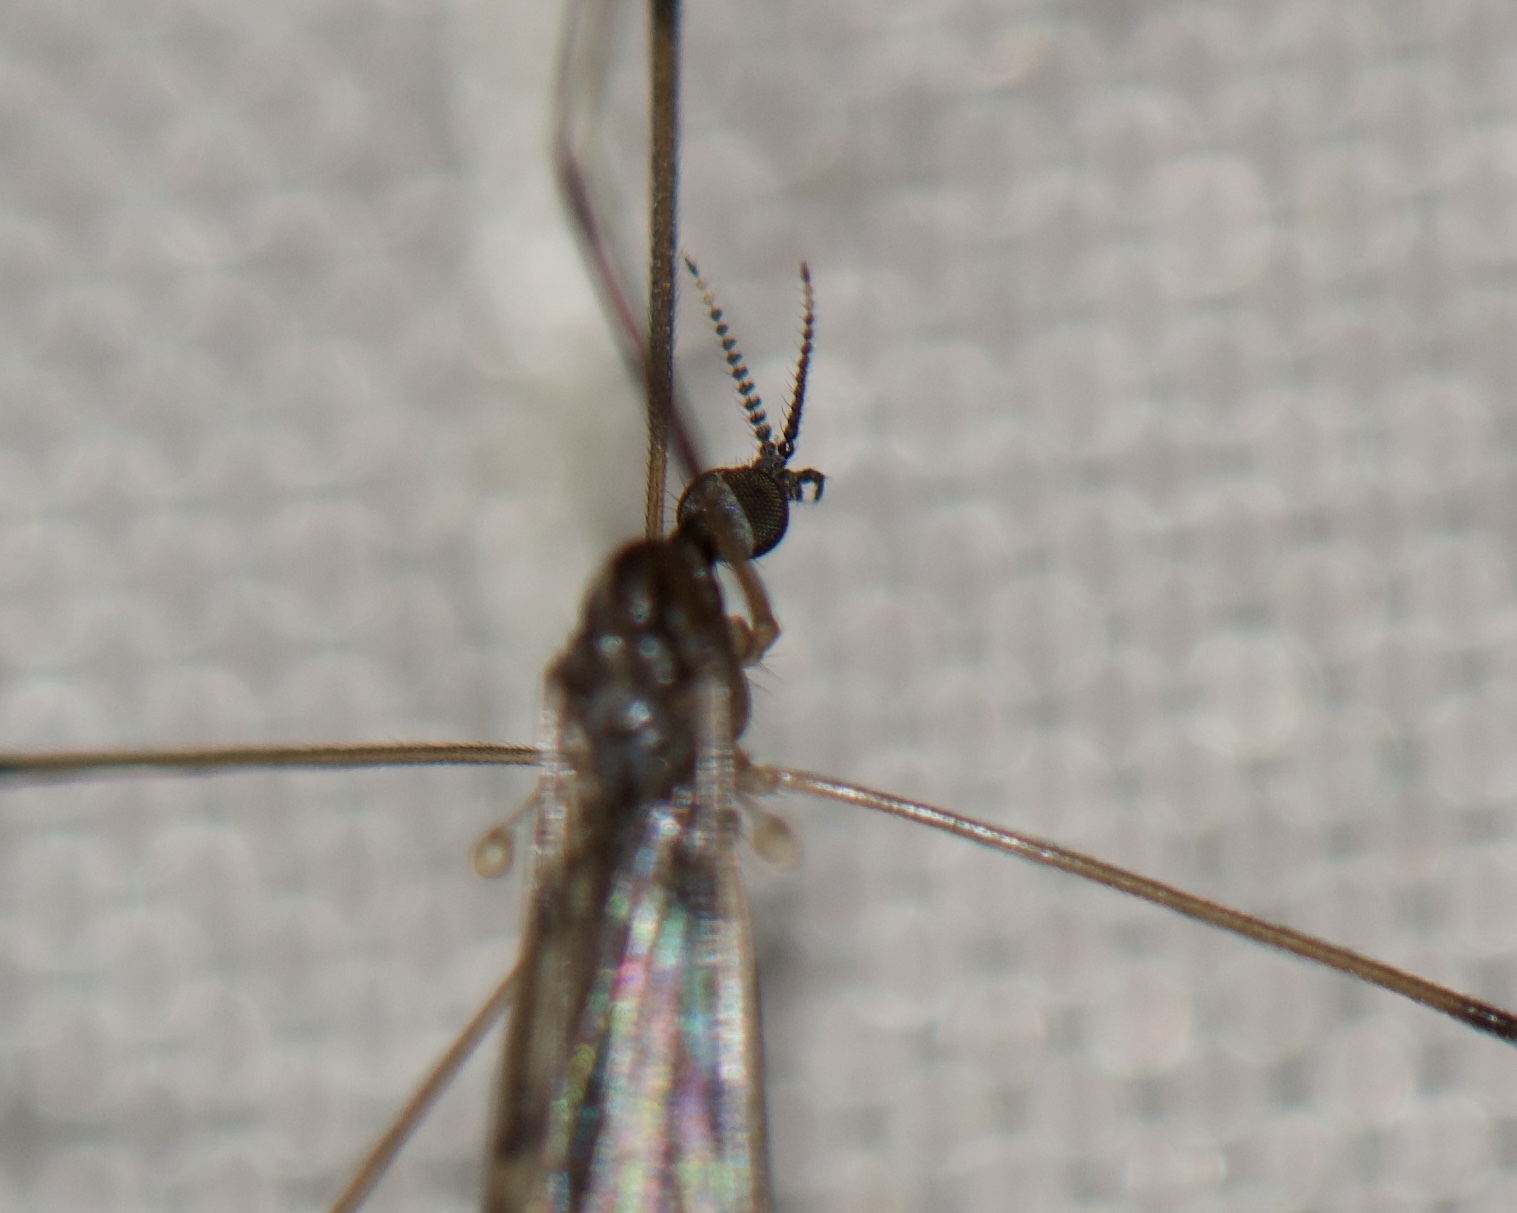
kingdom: Animalia
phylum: Arthropoda
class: Insecta
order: Diptera
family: Limoniidae
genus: Rhipidia
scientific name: Rhipidia domestica
